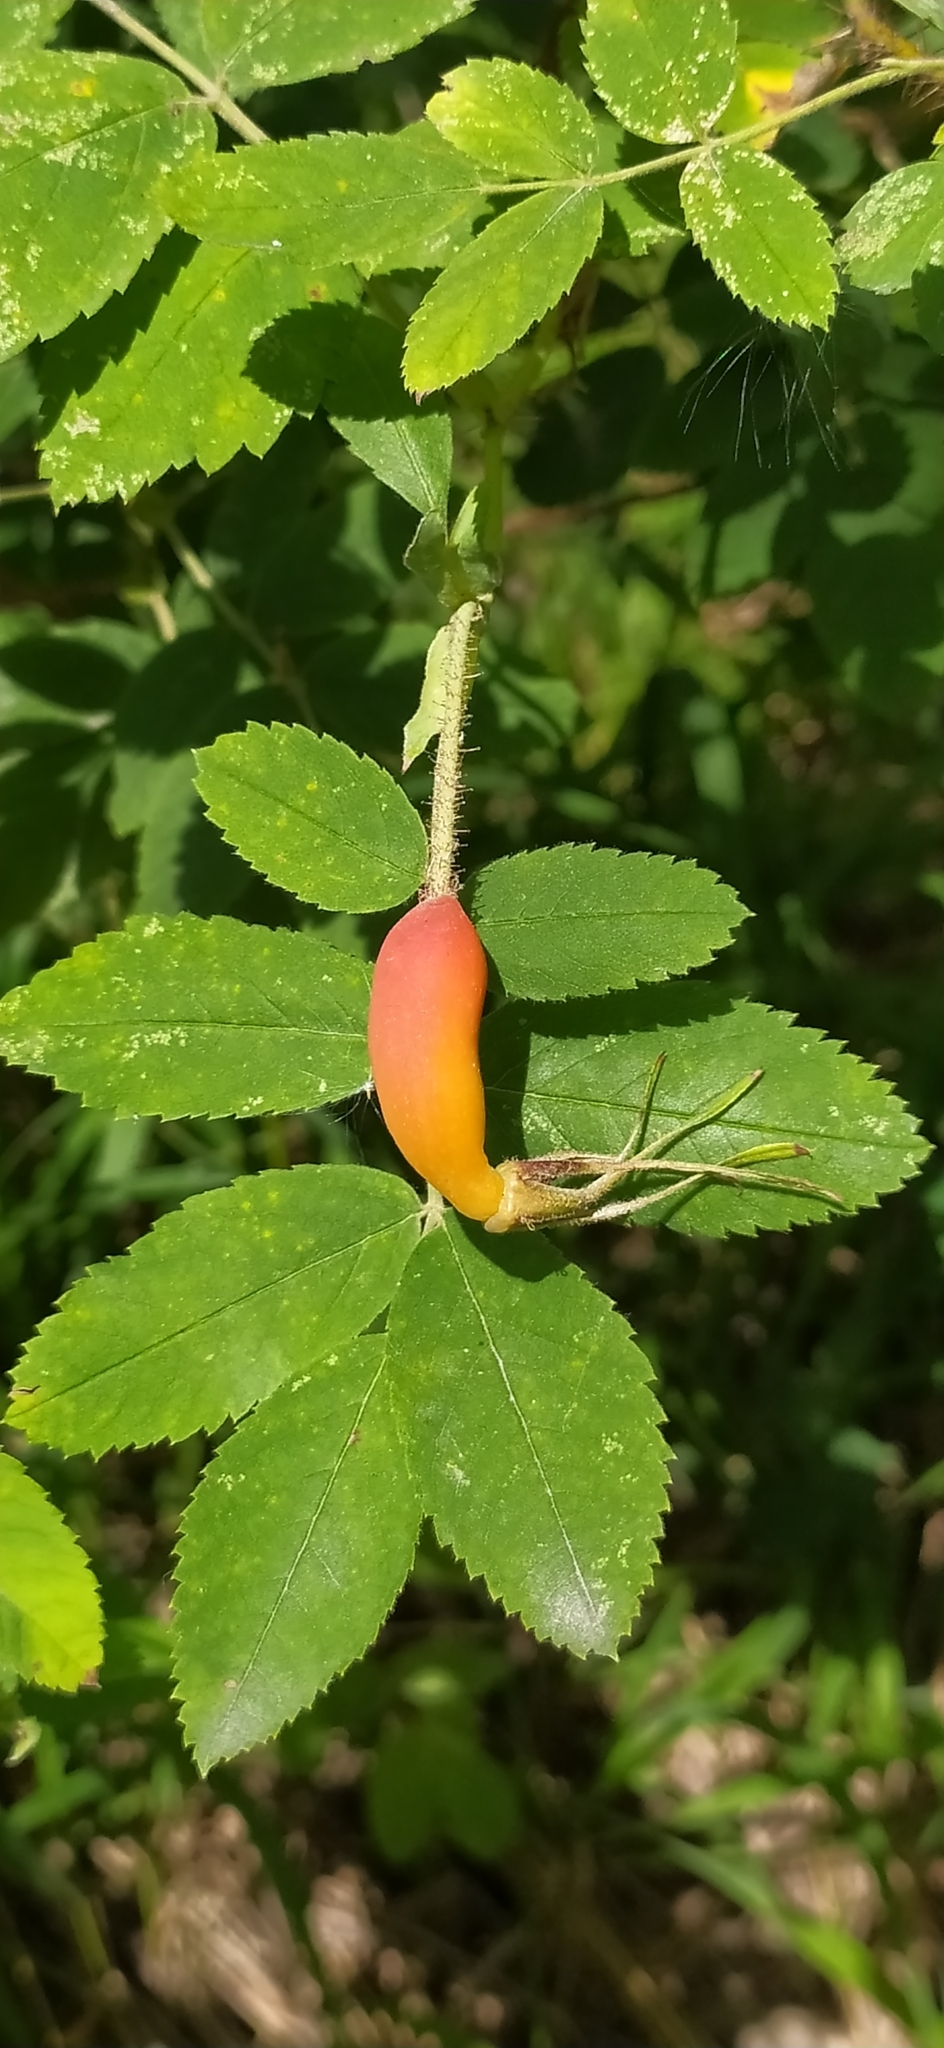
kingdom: Plantae
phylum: Tracheophyta
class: Magnoliopsida
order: Rosales
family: Rosaceae
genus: Rosa
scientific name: Rosa acicularis
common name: Prickly rose
